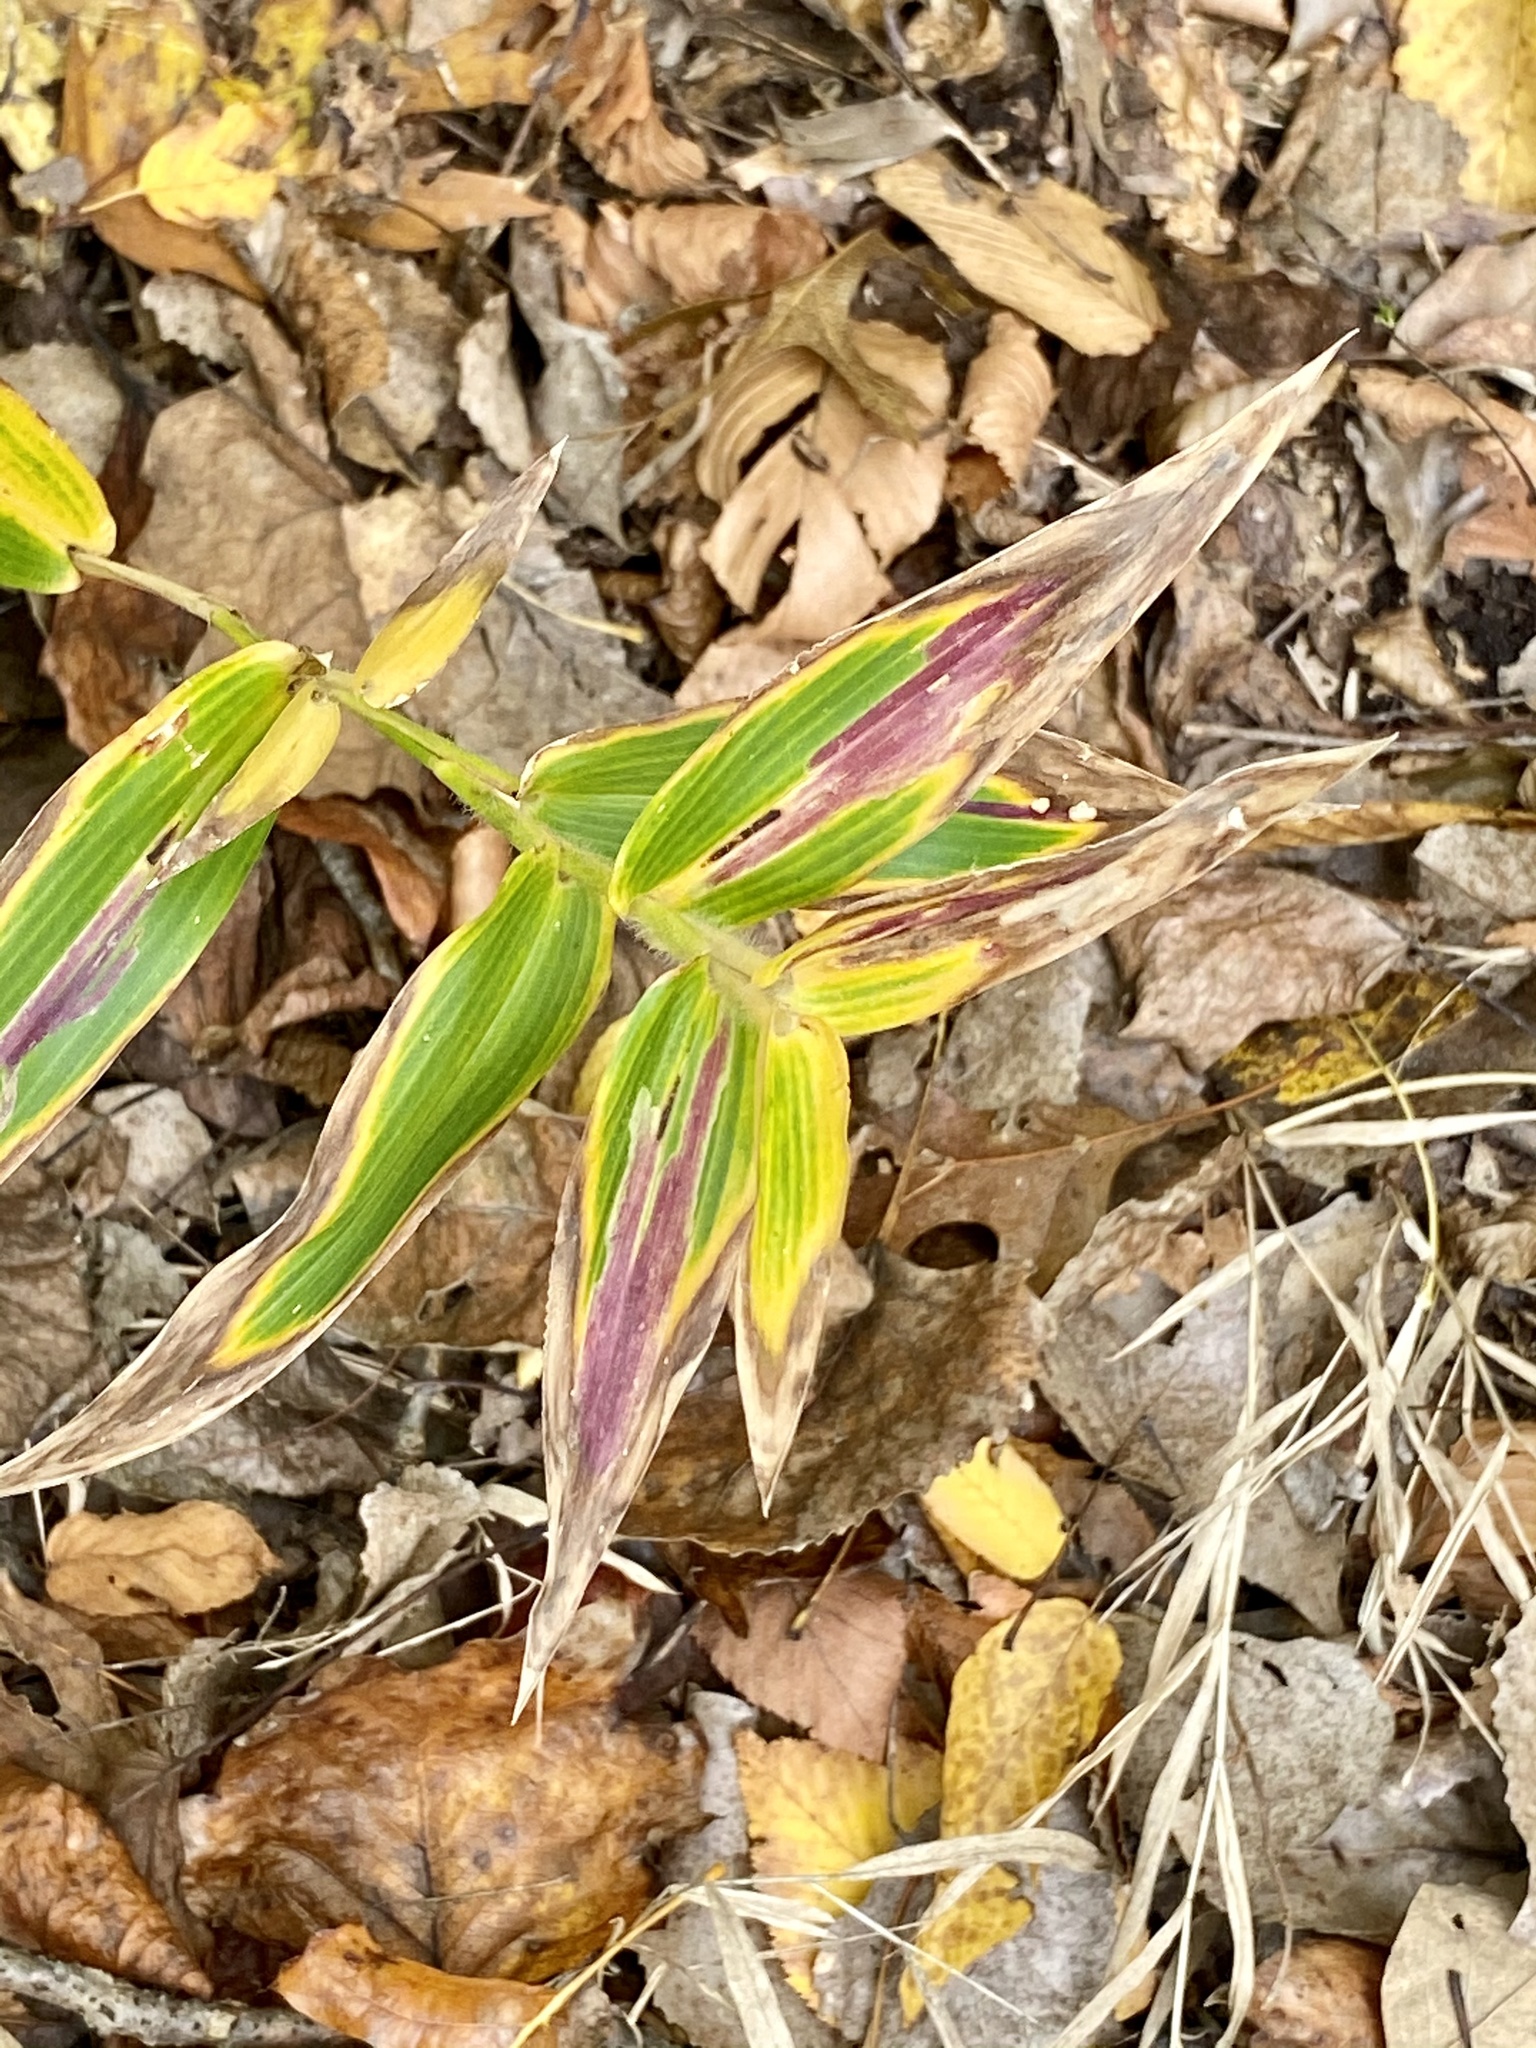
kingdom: Plantae
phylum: Tracheophyta
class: Liliopsida
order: Poales
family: Poaceae
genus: Dichanthelium
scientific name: Dichanthelium clandestinum
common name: Deer-tongue grass
